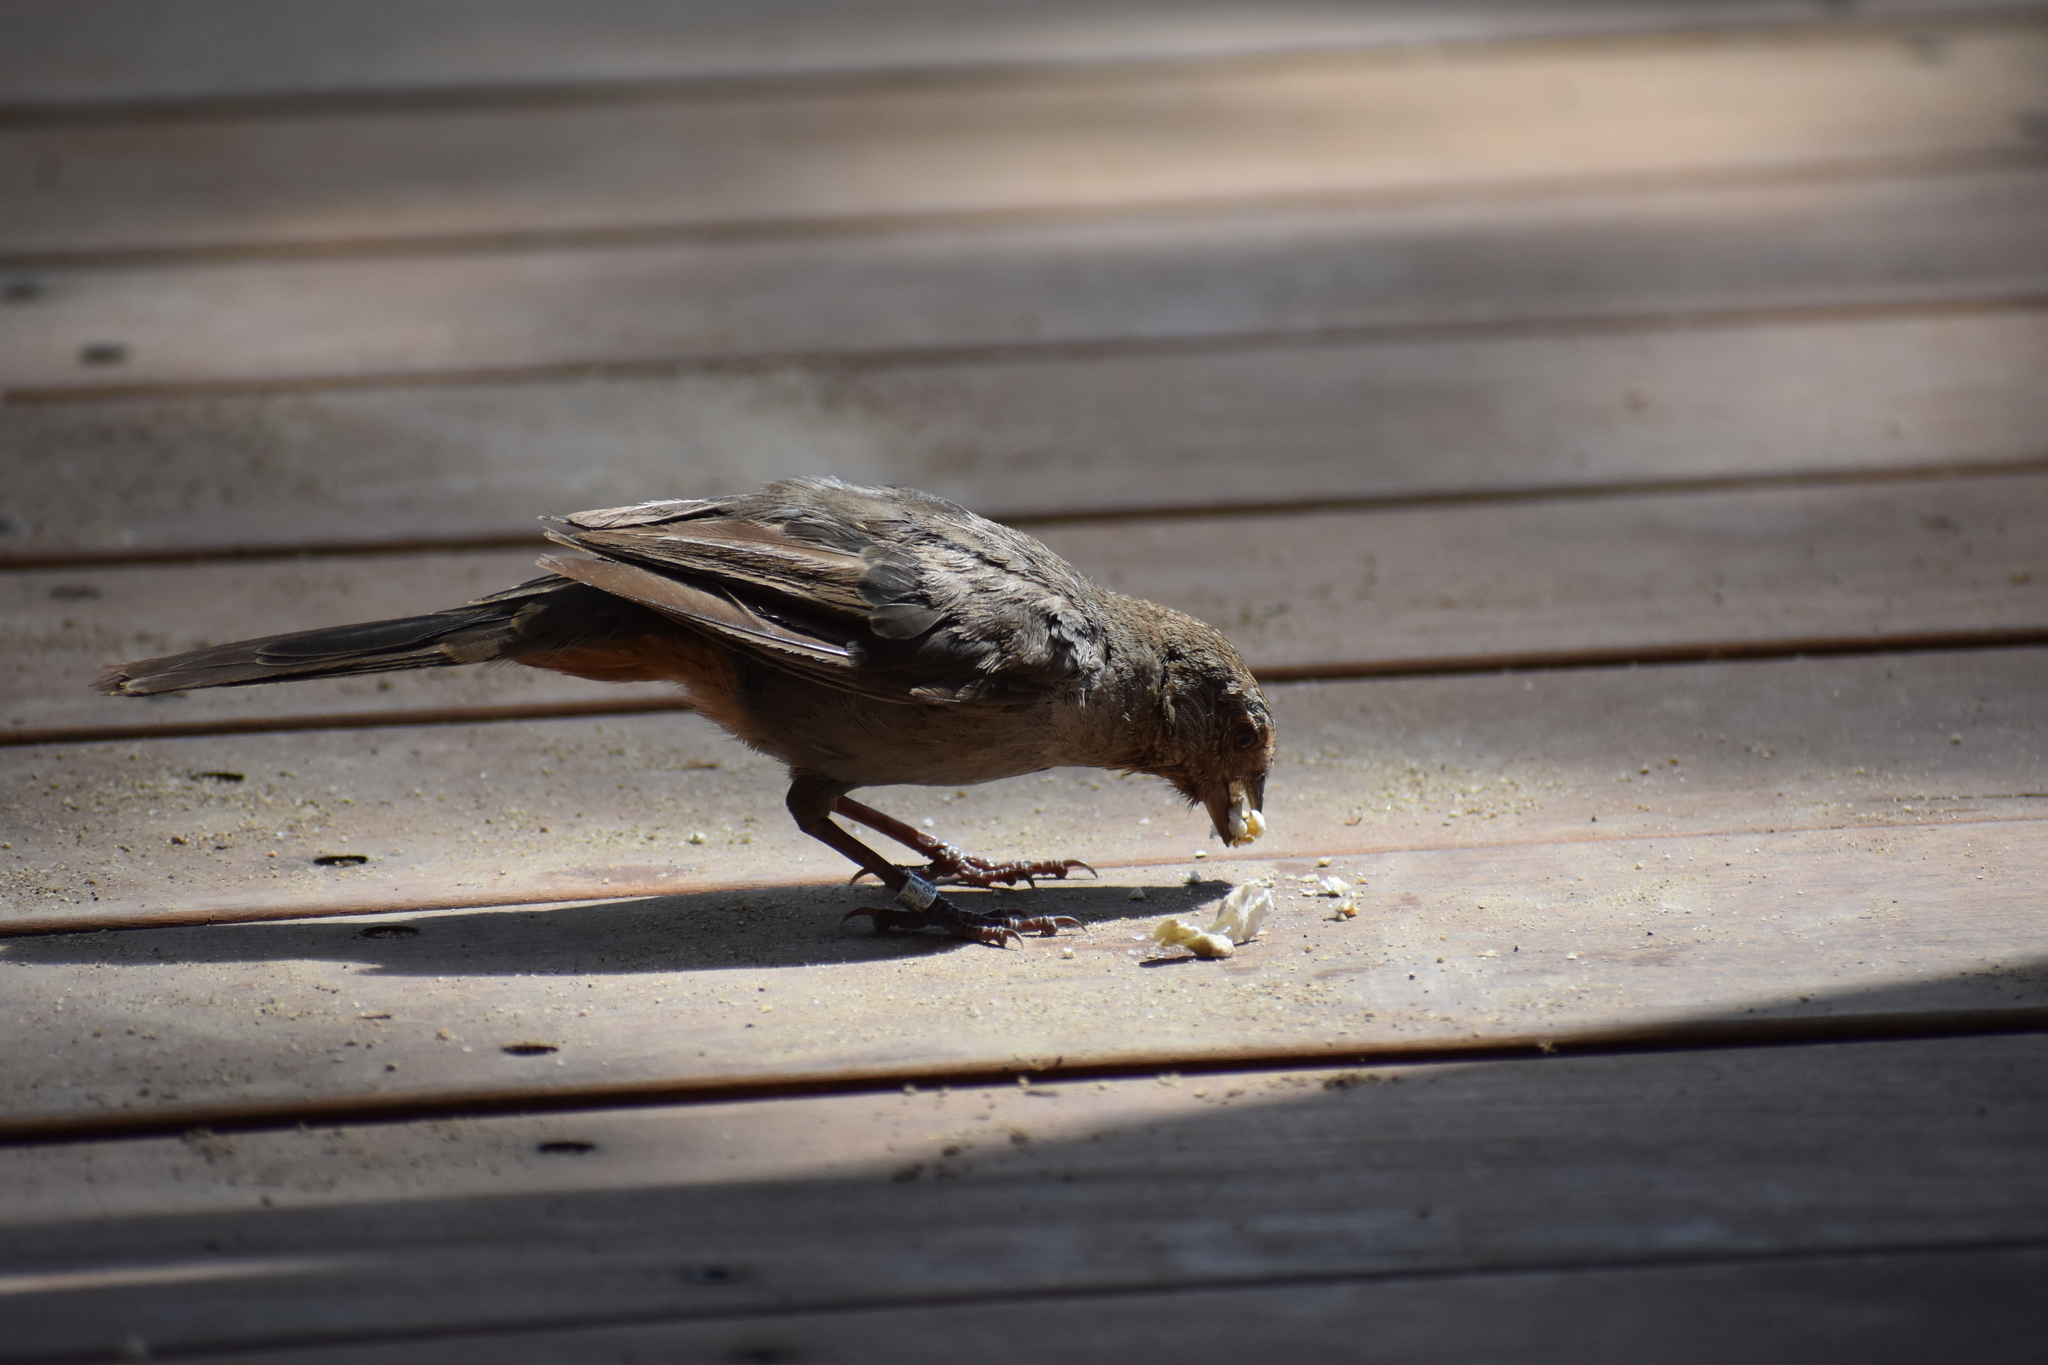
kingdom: Animalia
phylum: Chordata
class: Aves
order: Passeriformes
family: Passerellidae
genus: Melozone
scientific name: Melozone crissalis
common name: California towhee
